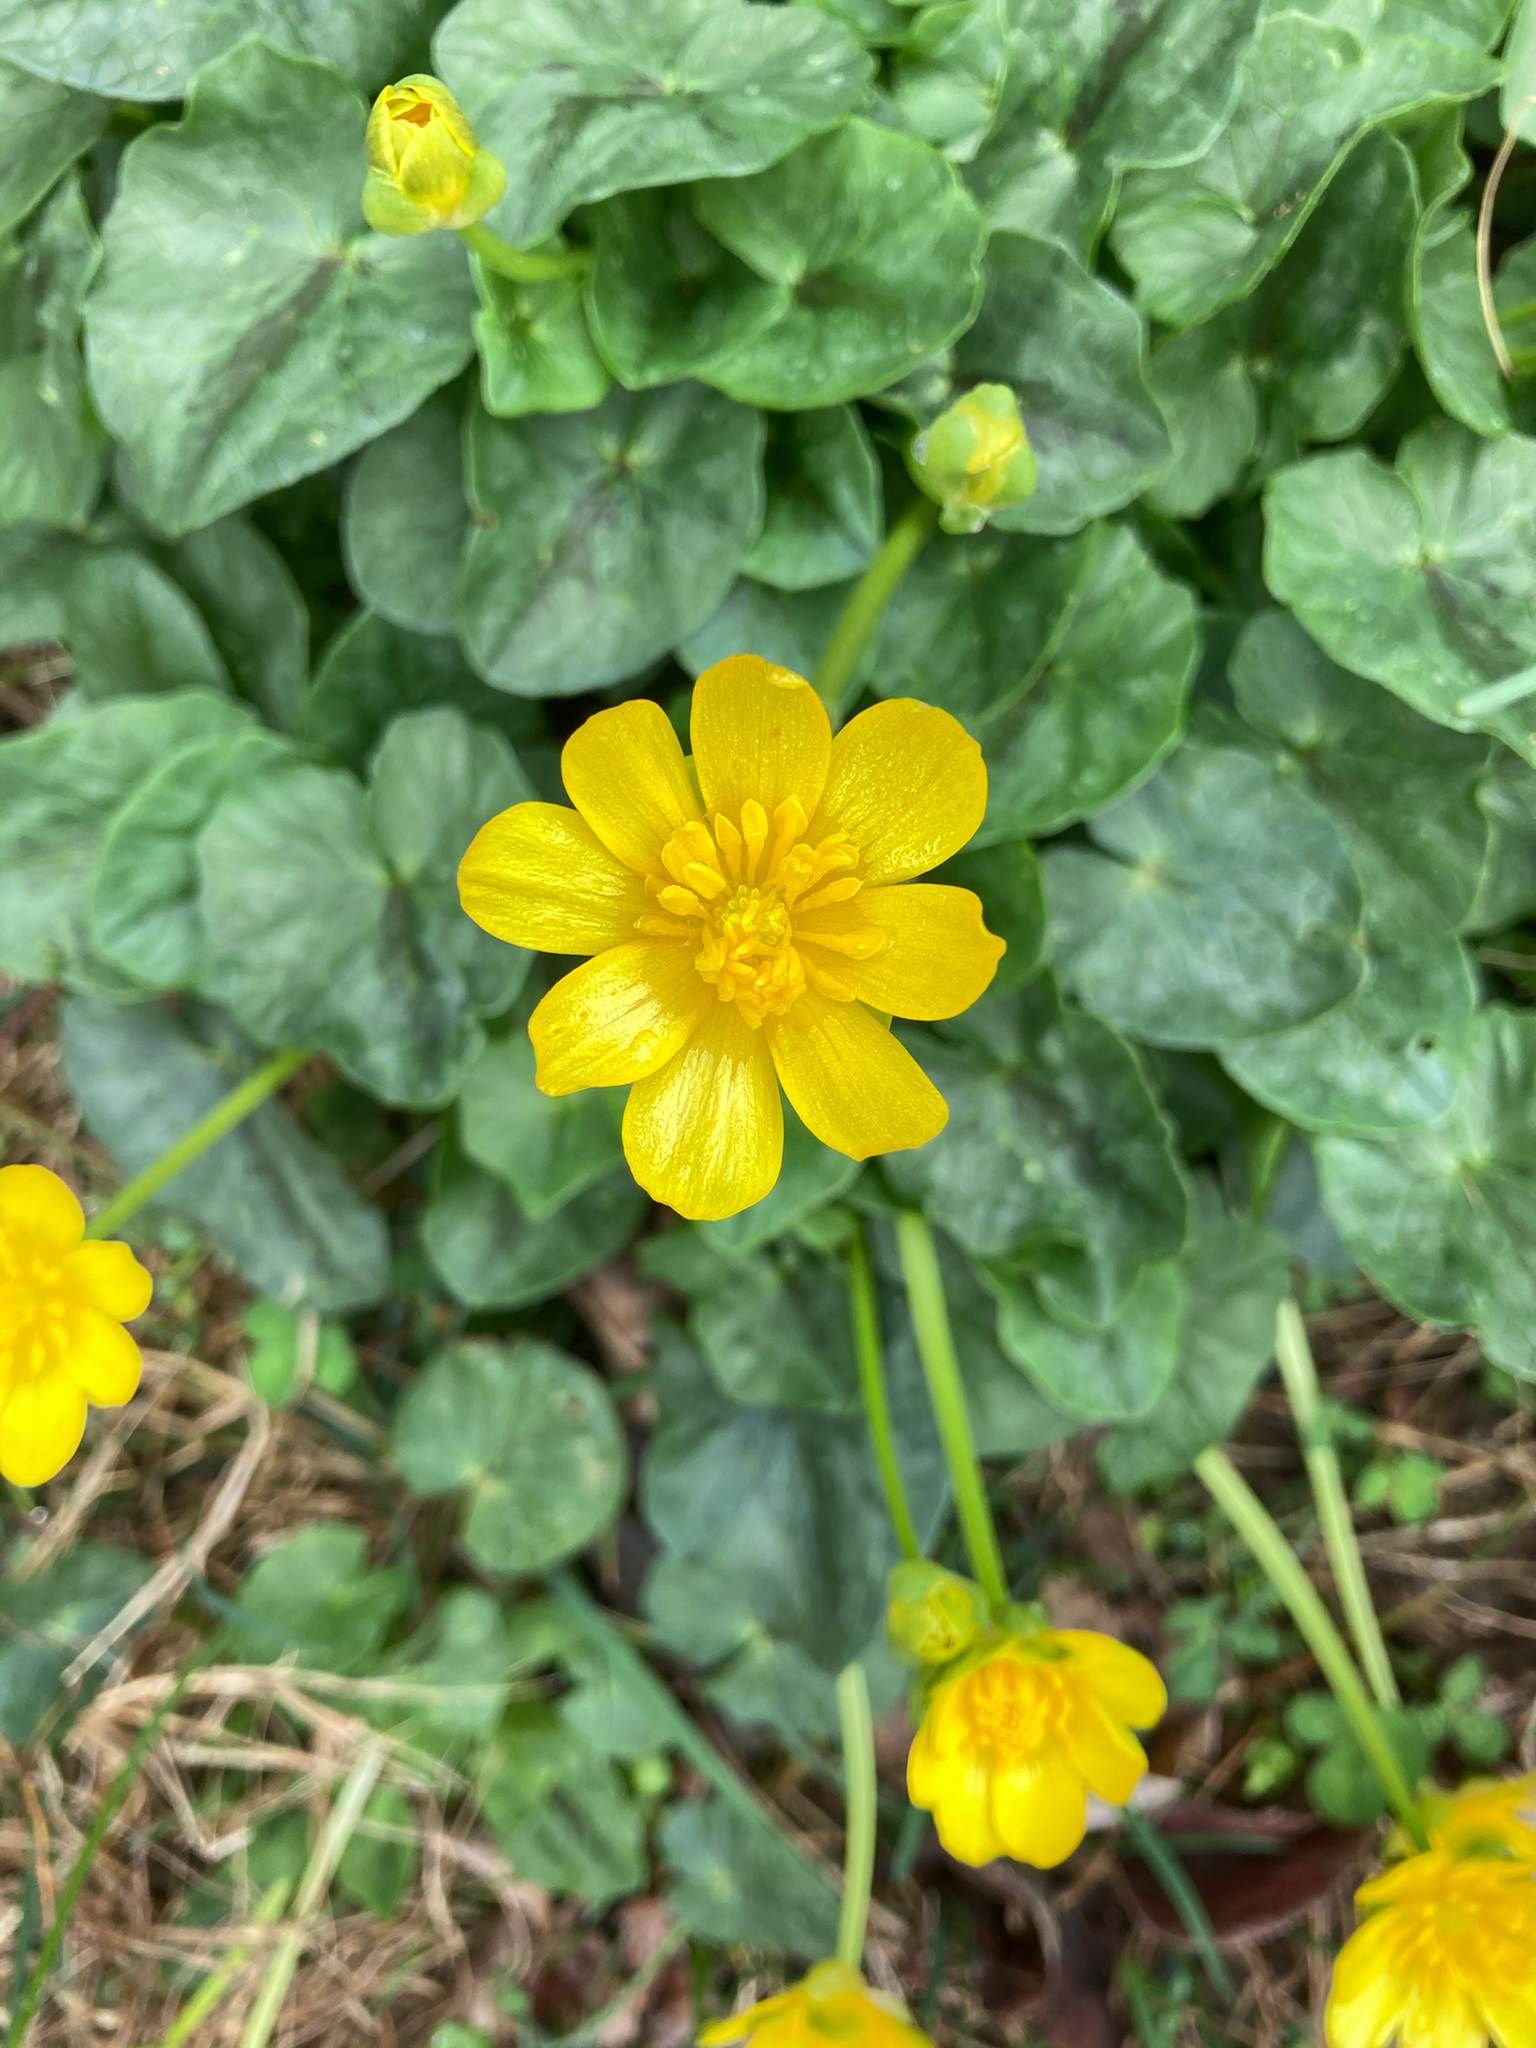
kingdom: Plantae
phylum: Tracheophyta
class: Magnoliopsida
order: Ranunculales
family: Ranunculaceae
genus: Ficaria
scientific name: Ficaria verna
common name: Lesser celandine
